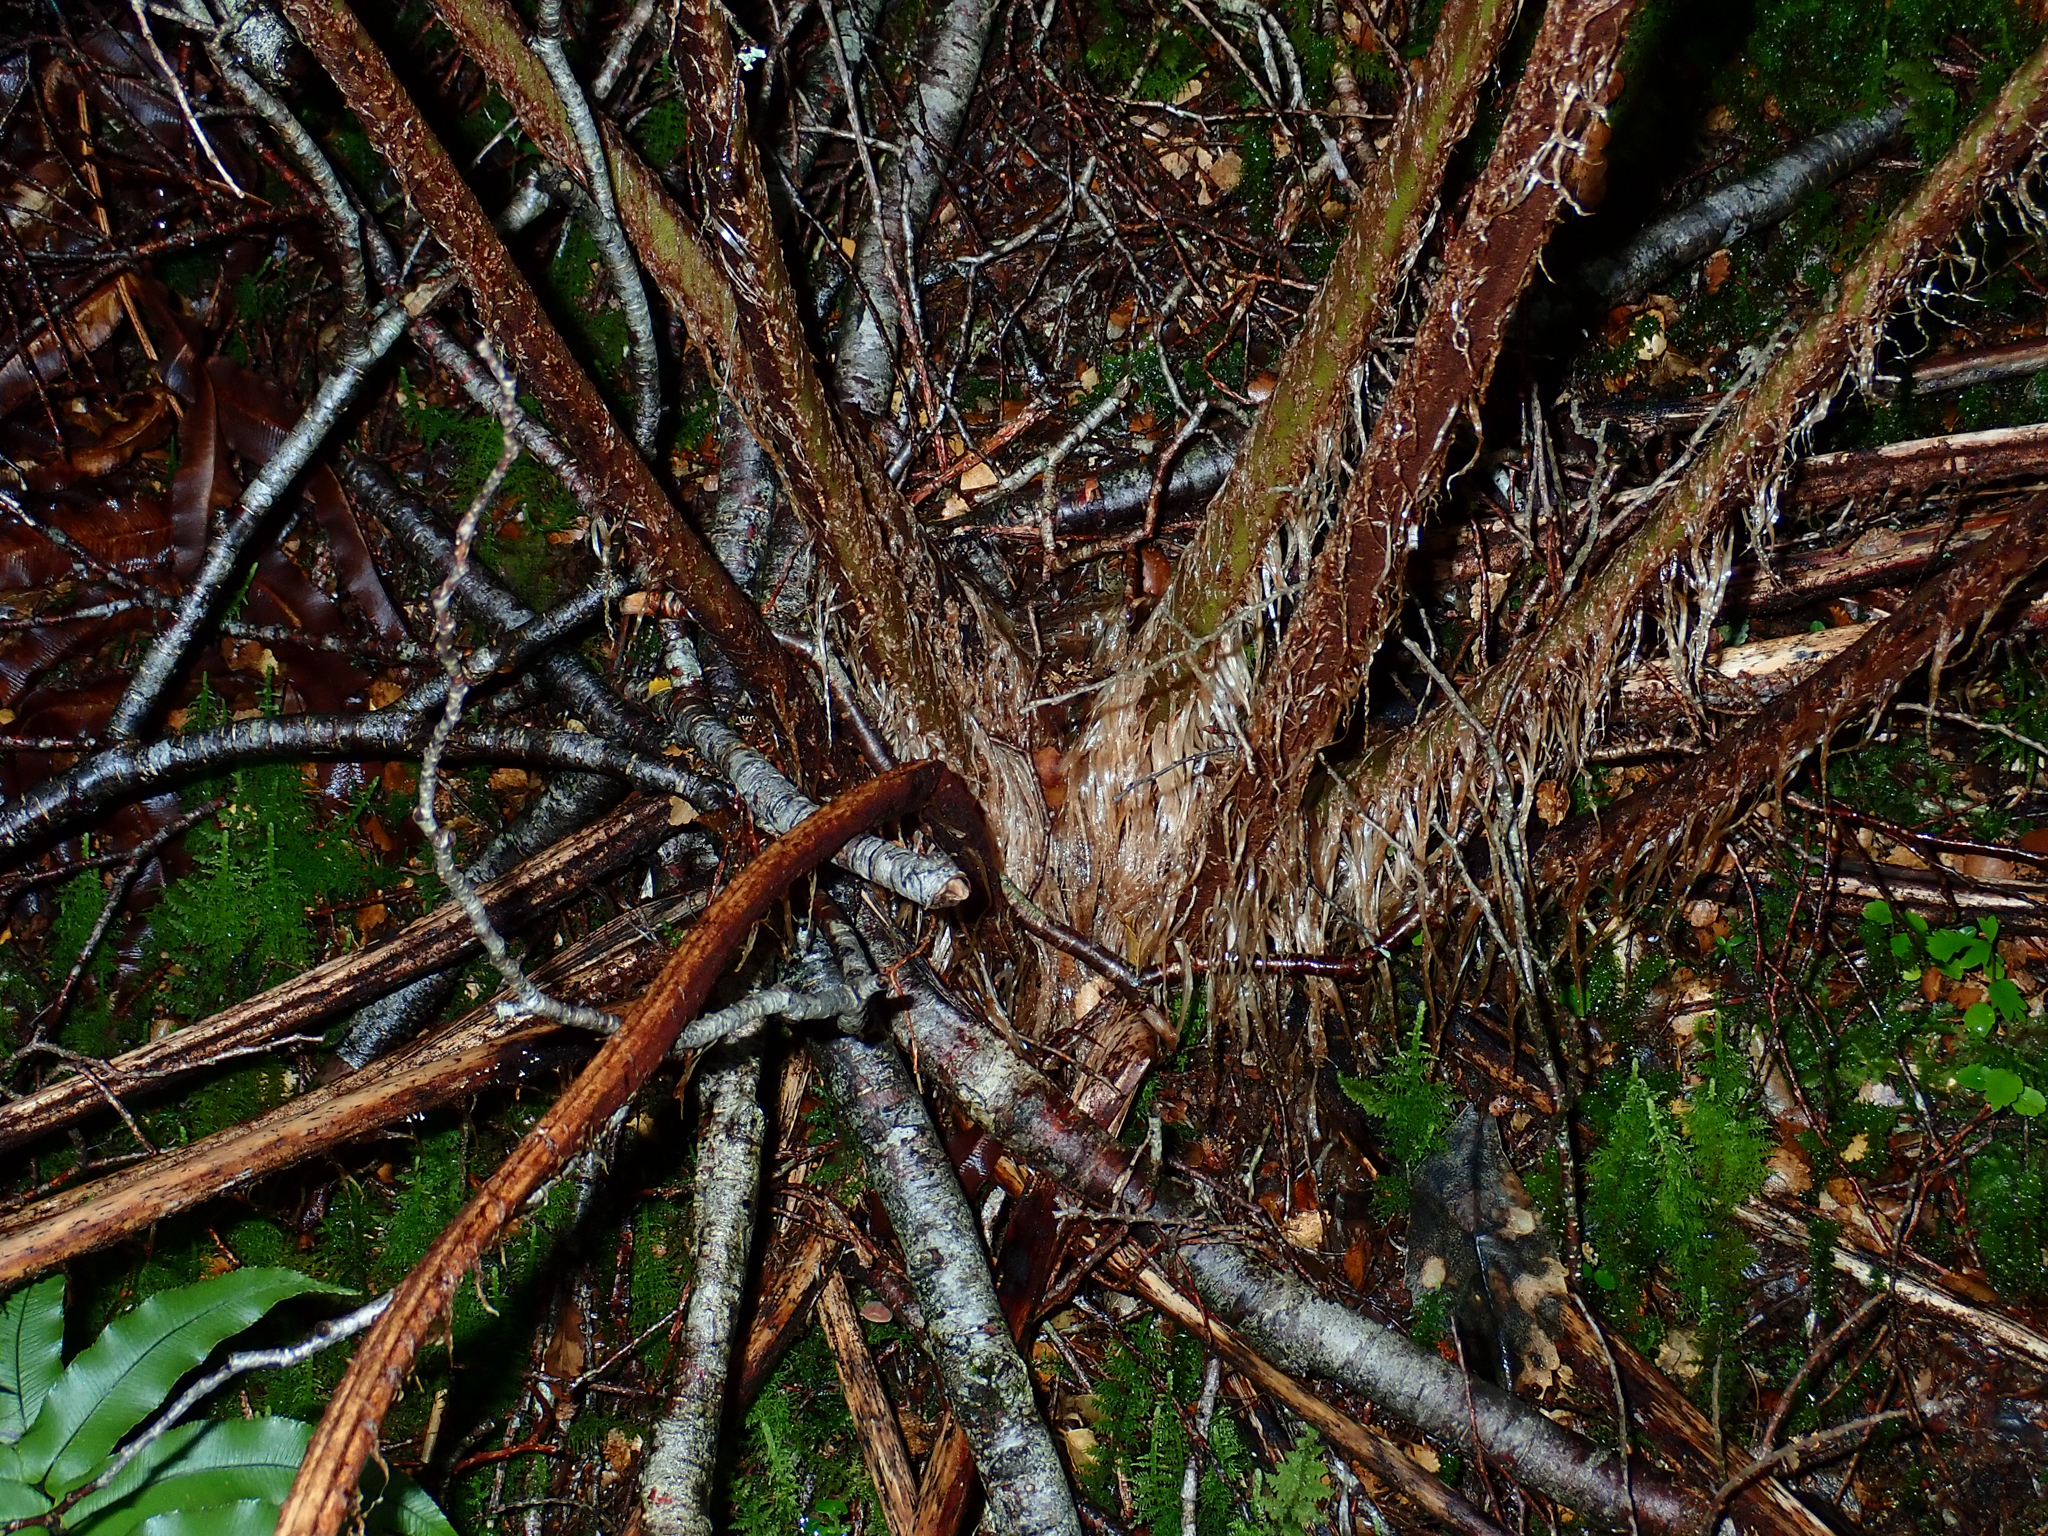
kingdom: Plantae
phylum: Tracheophyta
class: Polypodiopsida
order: Cyatheales
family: Cyatheaceae
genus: Alsophila
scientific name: Alsophila colensoi
